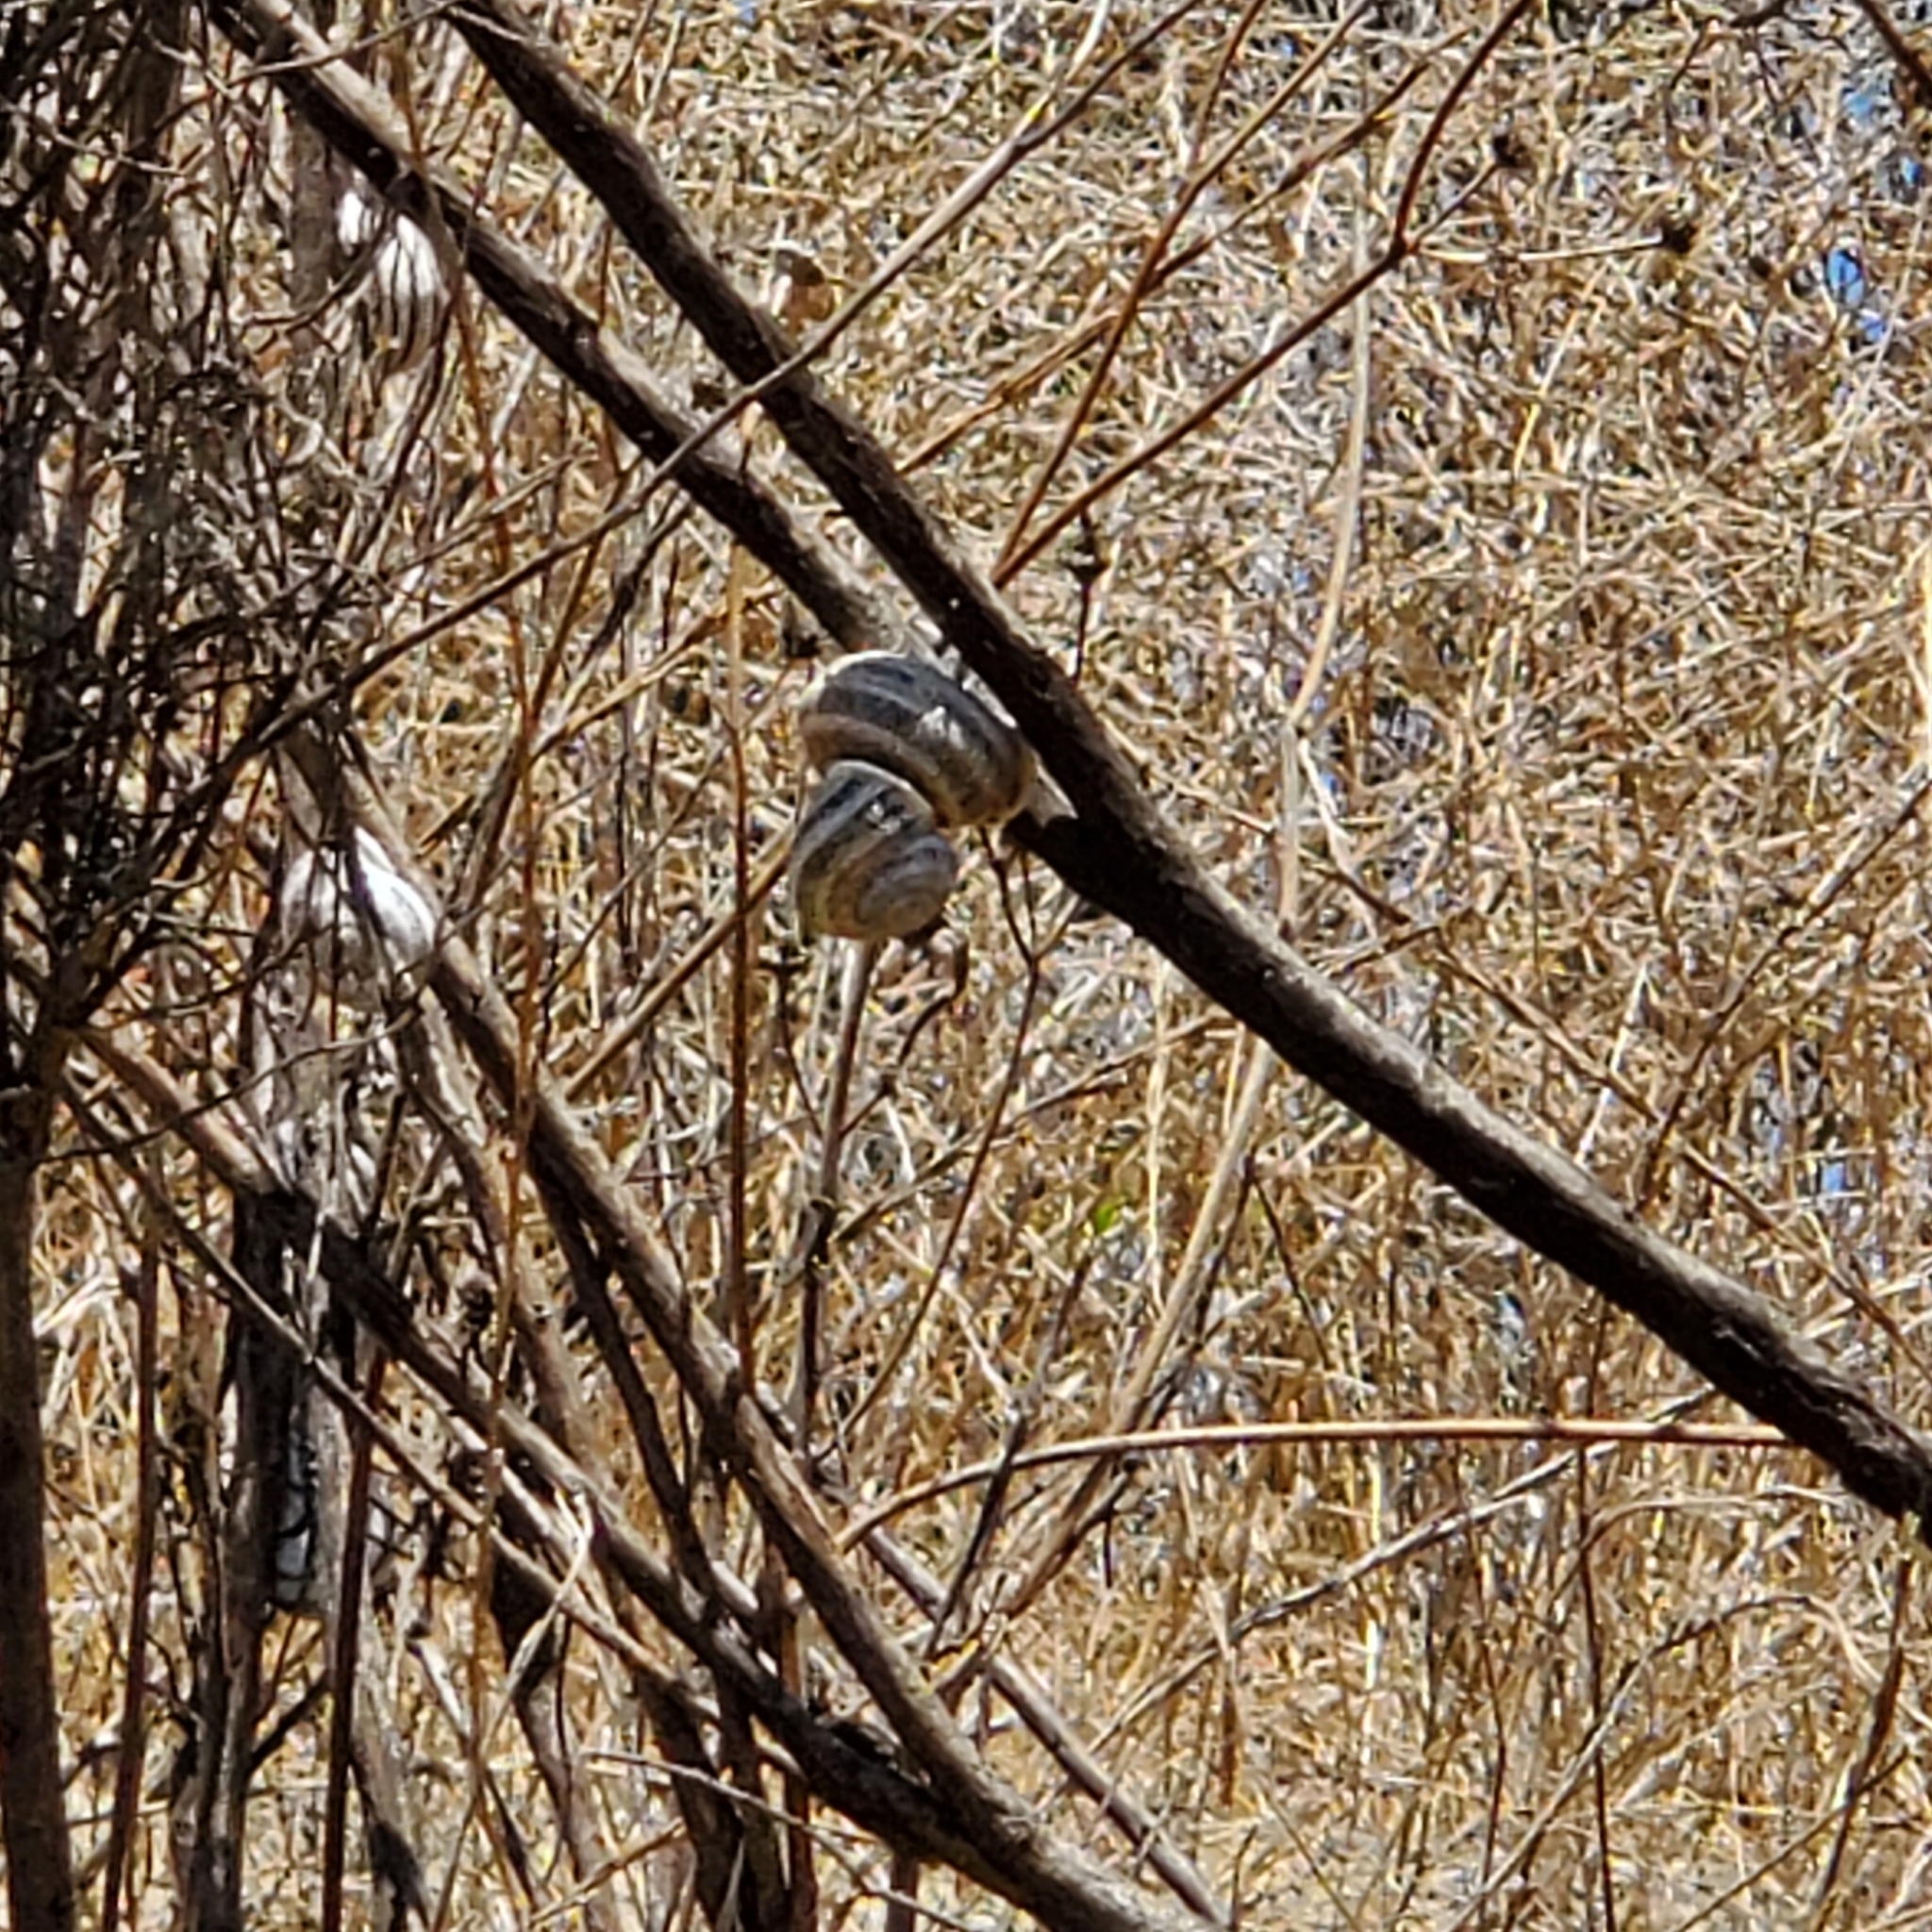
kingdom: Animalia
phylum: Mollusca
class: Gastropoda
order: Stylommatophora
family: Helicidae
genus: Otala
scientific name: Otala lactea
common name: Milk snail
